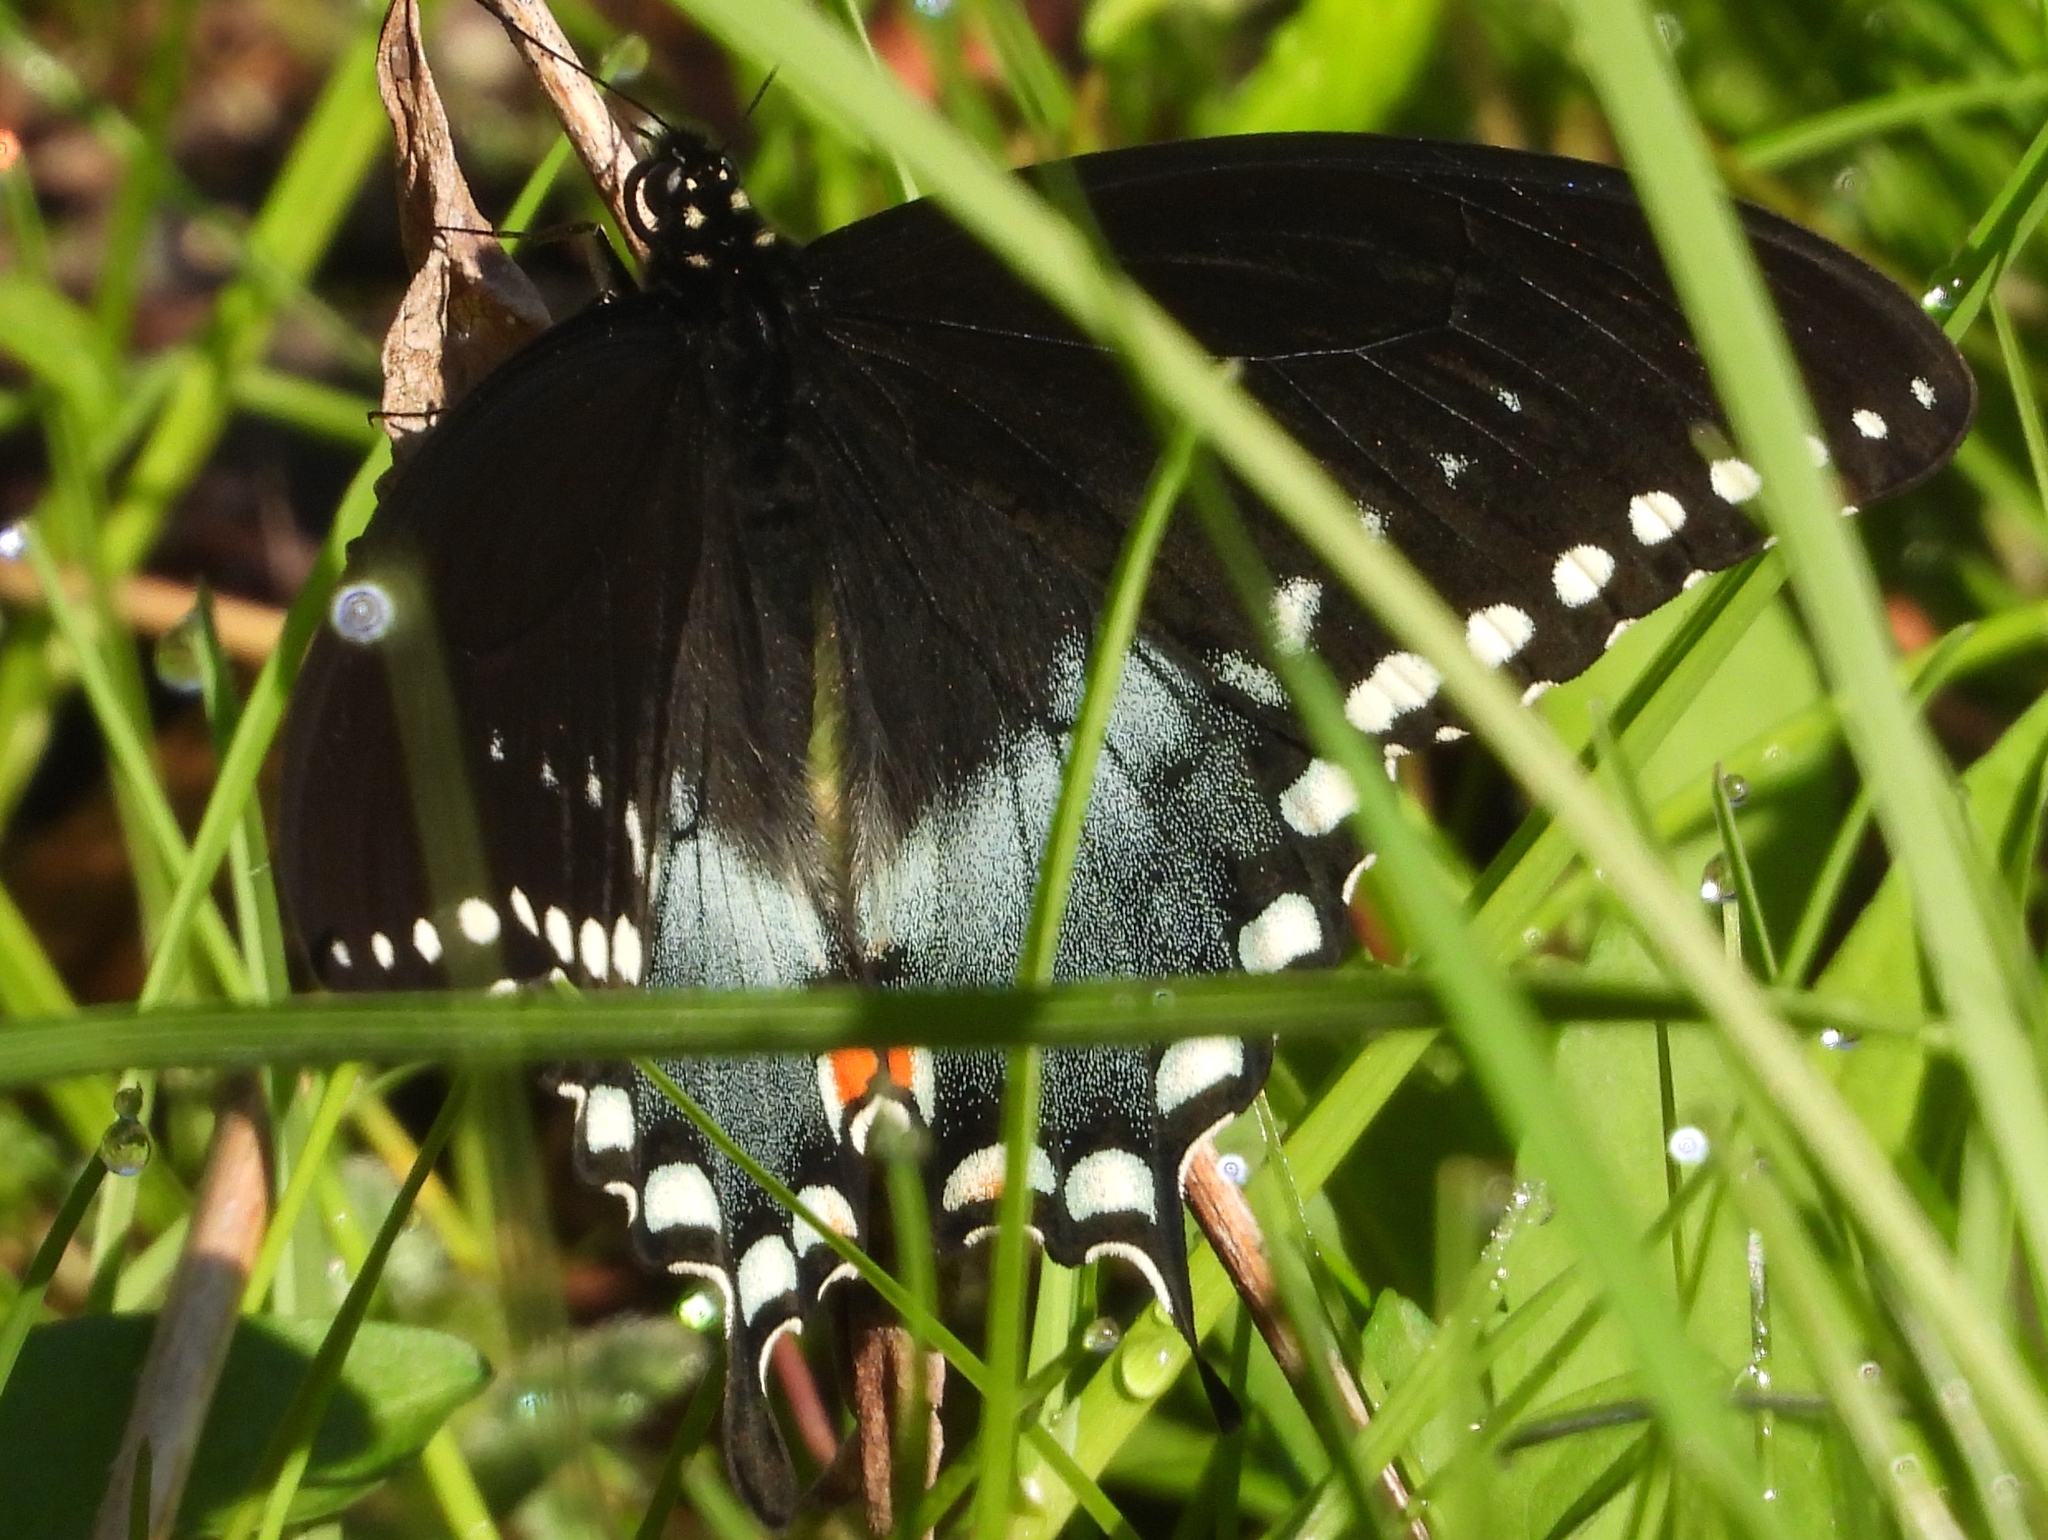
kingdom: Animalia
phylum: Arthropoda
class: Insecta
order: Lepidoptera
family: Papilionidae
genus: Papilio
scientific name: Papilio troilus
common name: Spicebush swallowtail
